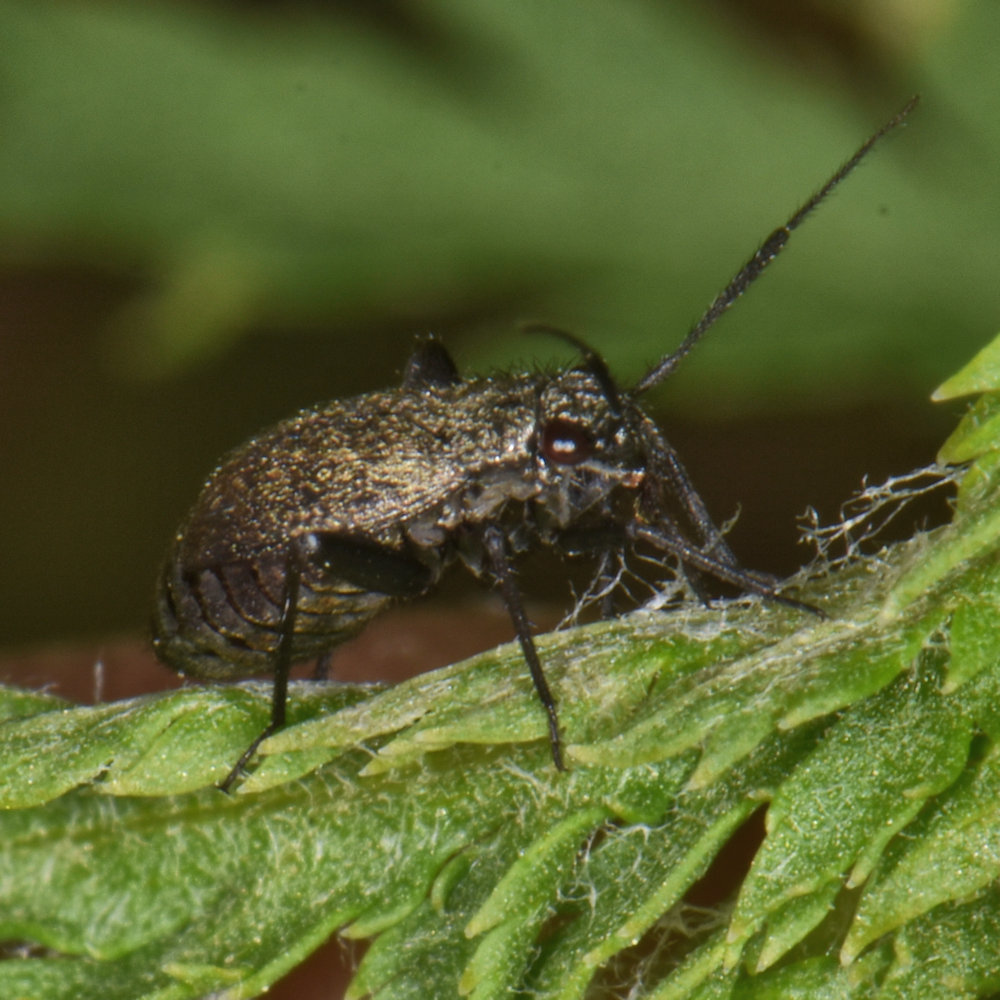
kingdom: Animalia
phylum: Arthropoda
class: Insecta
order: Hemiptera
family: Miridae
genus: Orthocephalus
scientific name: Orthocephalus coriaceus
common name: Plant bug
